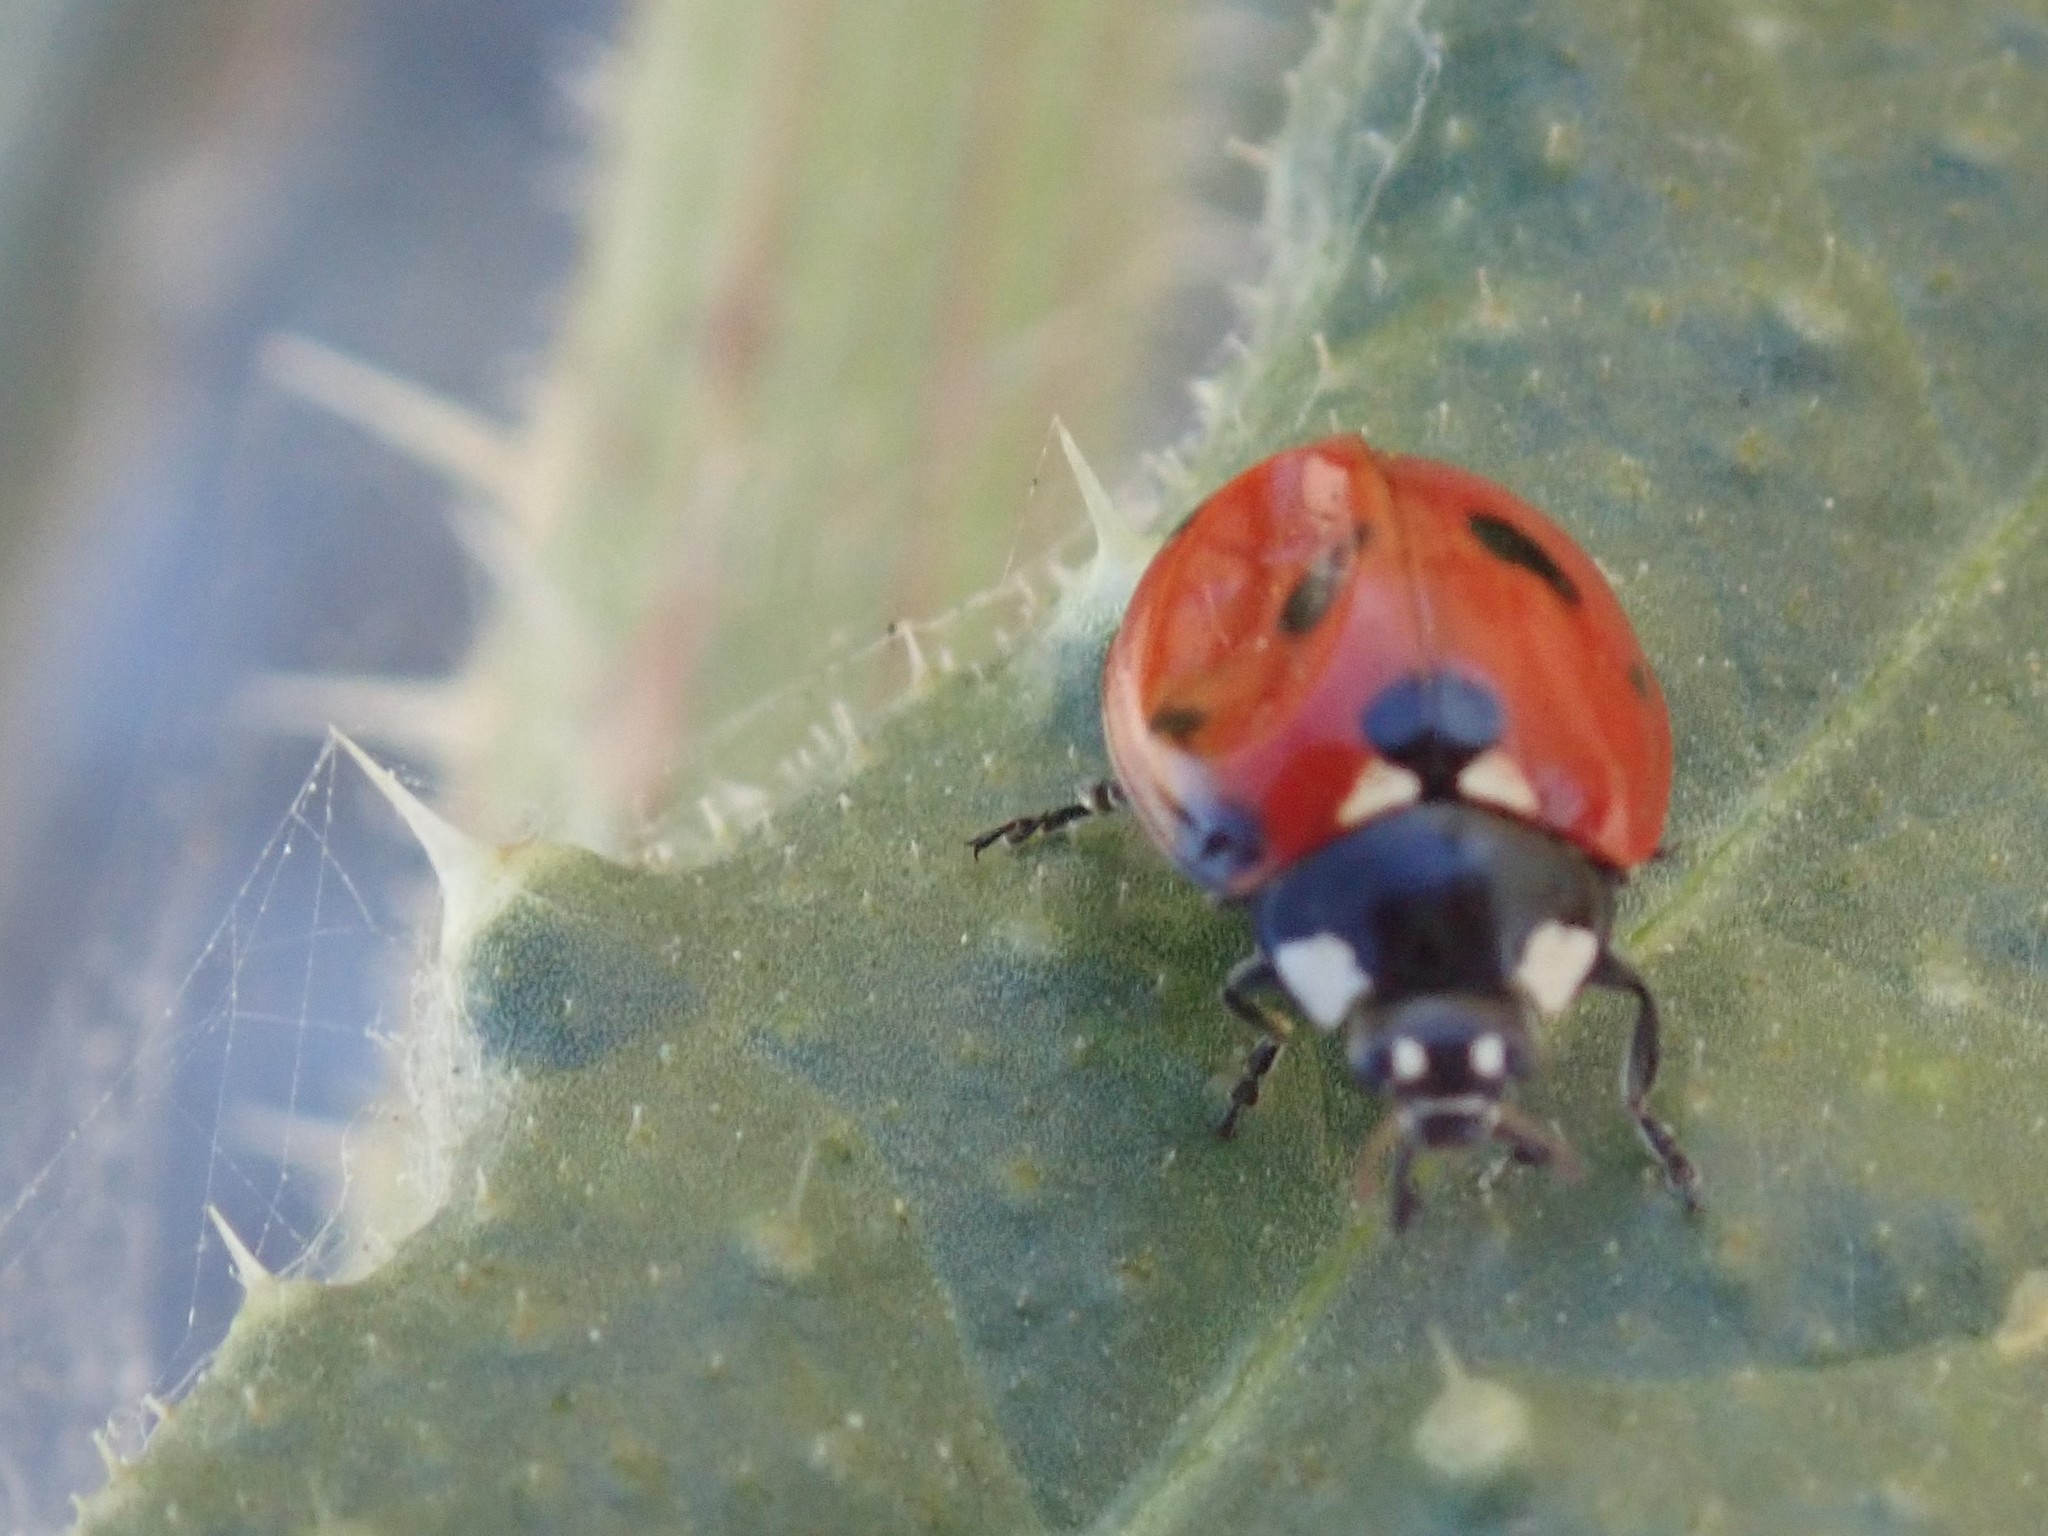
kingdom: Animalia
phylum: Arthropoda
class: Insecta
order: Coleoptera
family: Coccinellidae
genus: Coccinella
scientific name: Coccinella septempunctata
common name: Sevenspotted lady beetle
